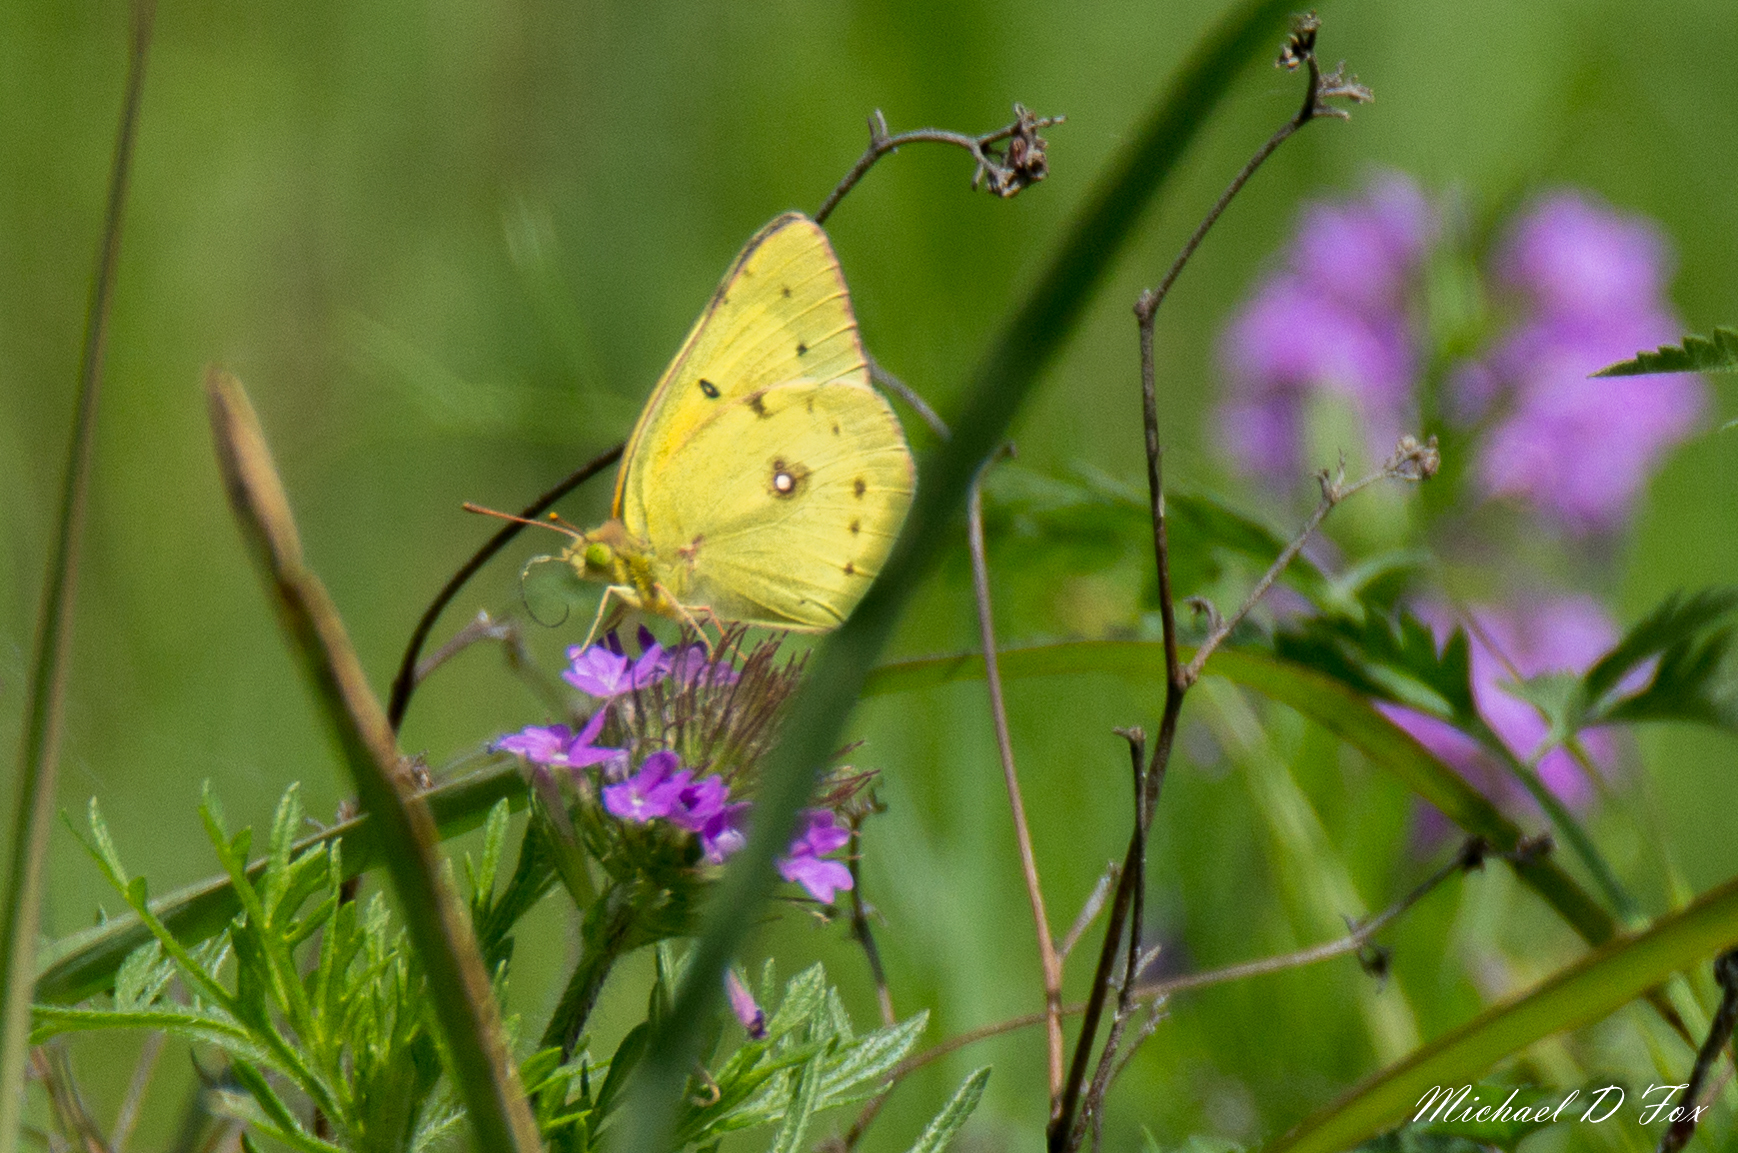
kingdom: Animalia
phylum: Arthropoda
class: Insecta
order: Lepidoptera
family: Pieridae
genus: Colias
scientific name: Colias eurytheme
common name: Alfalfa butterfly
